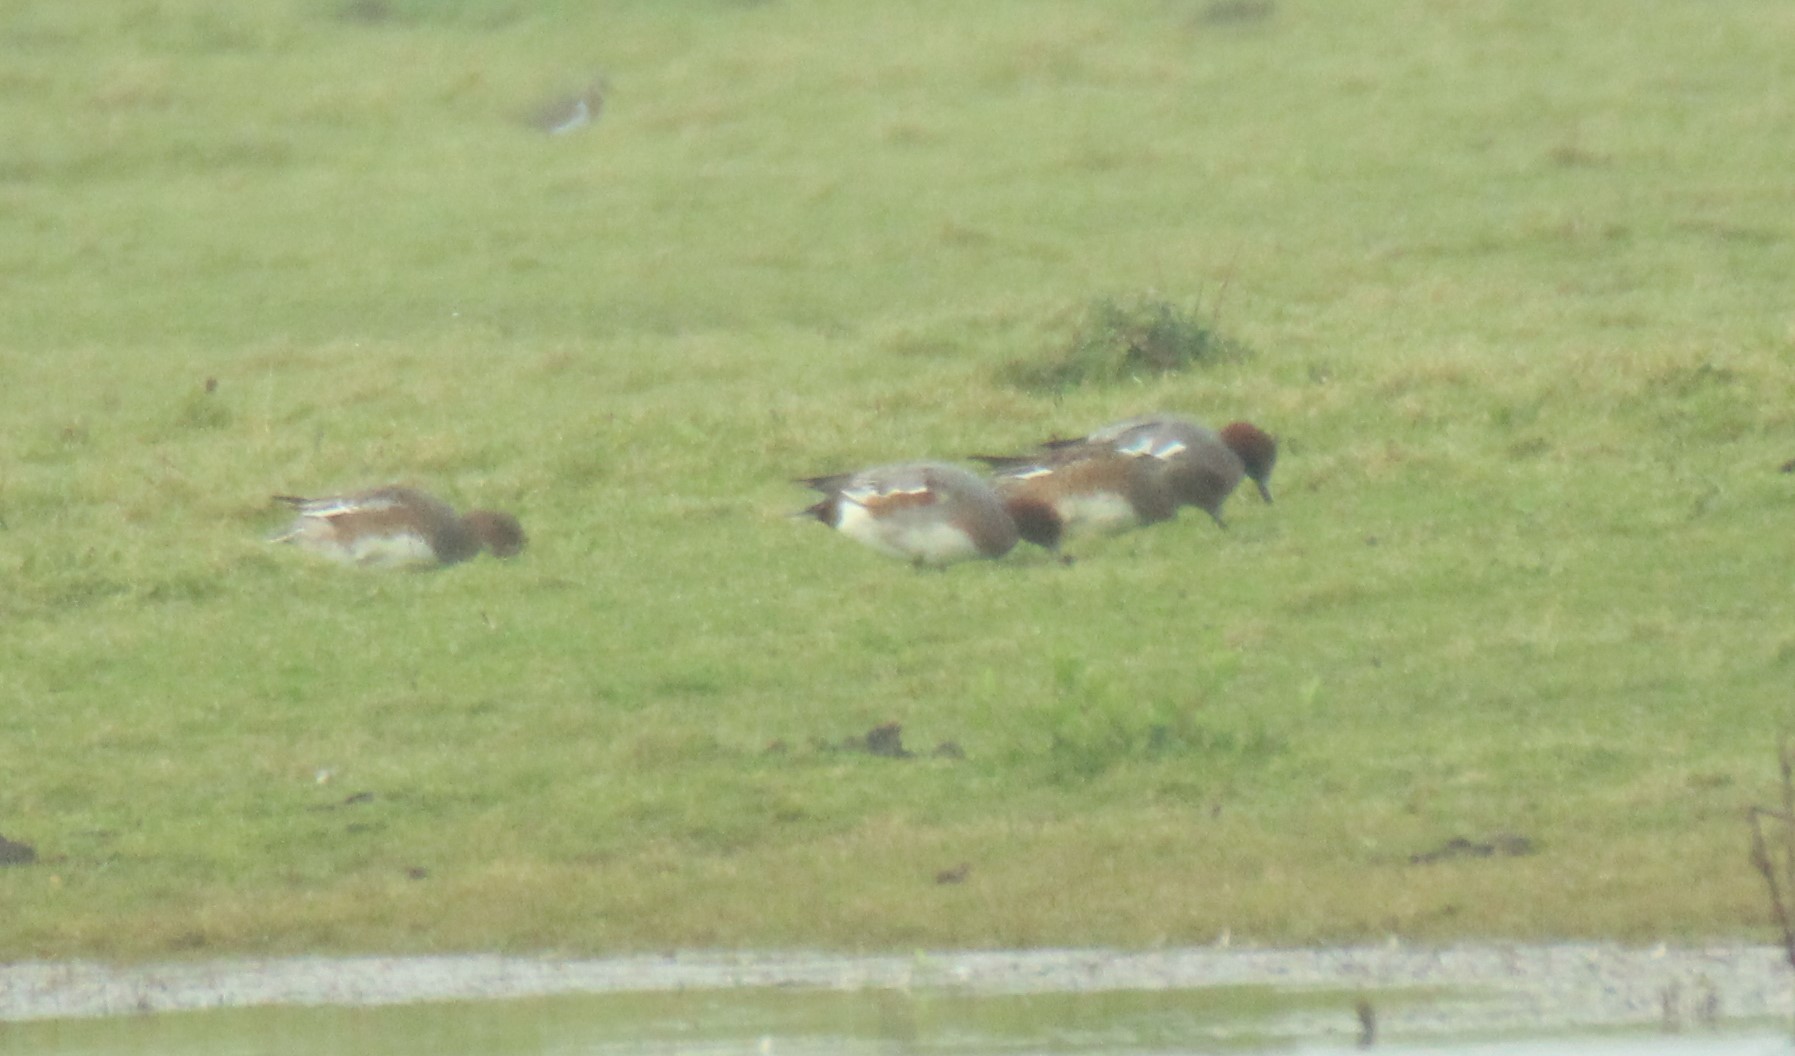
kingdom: Animalia
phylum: Chordata
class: Aves
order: Anseriformes
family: Anatidae
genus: Mareca
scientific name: Mareca penelope
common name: Eurasian wigeon
